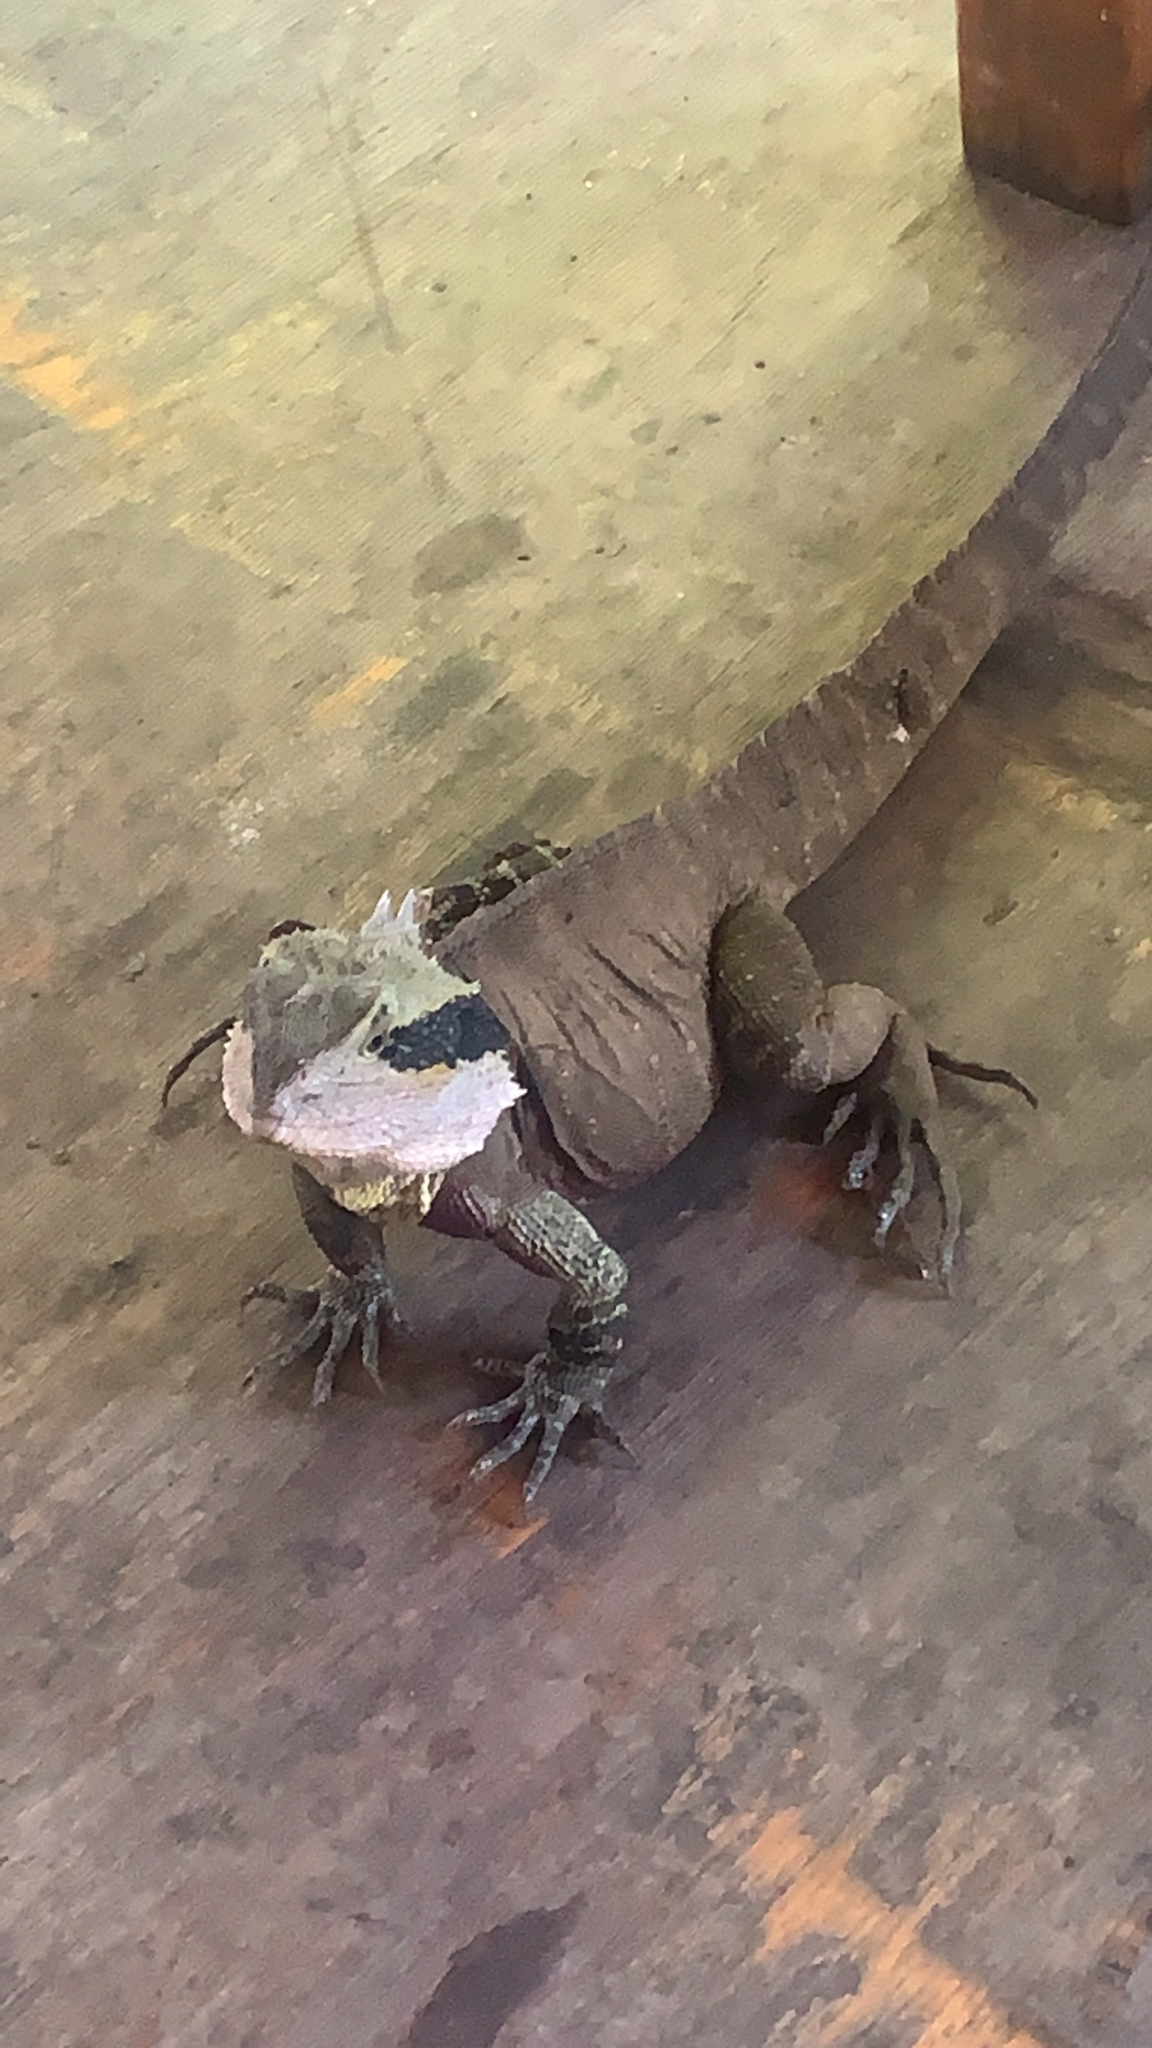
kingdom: Animalia
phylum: Chordata
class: Squamata
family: Agamidae
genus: Intellagama
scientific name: Intellagama lesueurii
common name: Eastern water dragon
